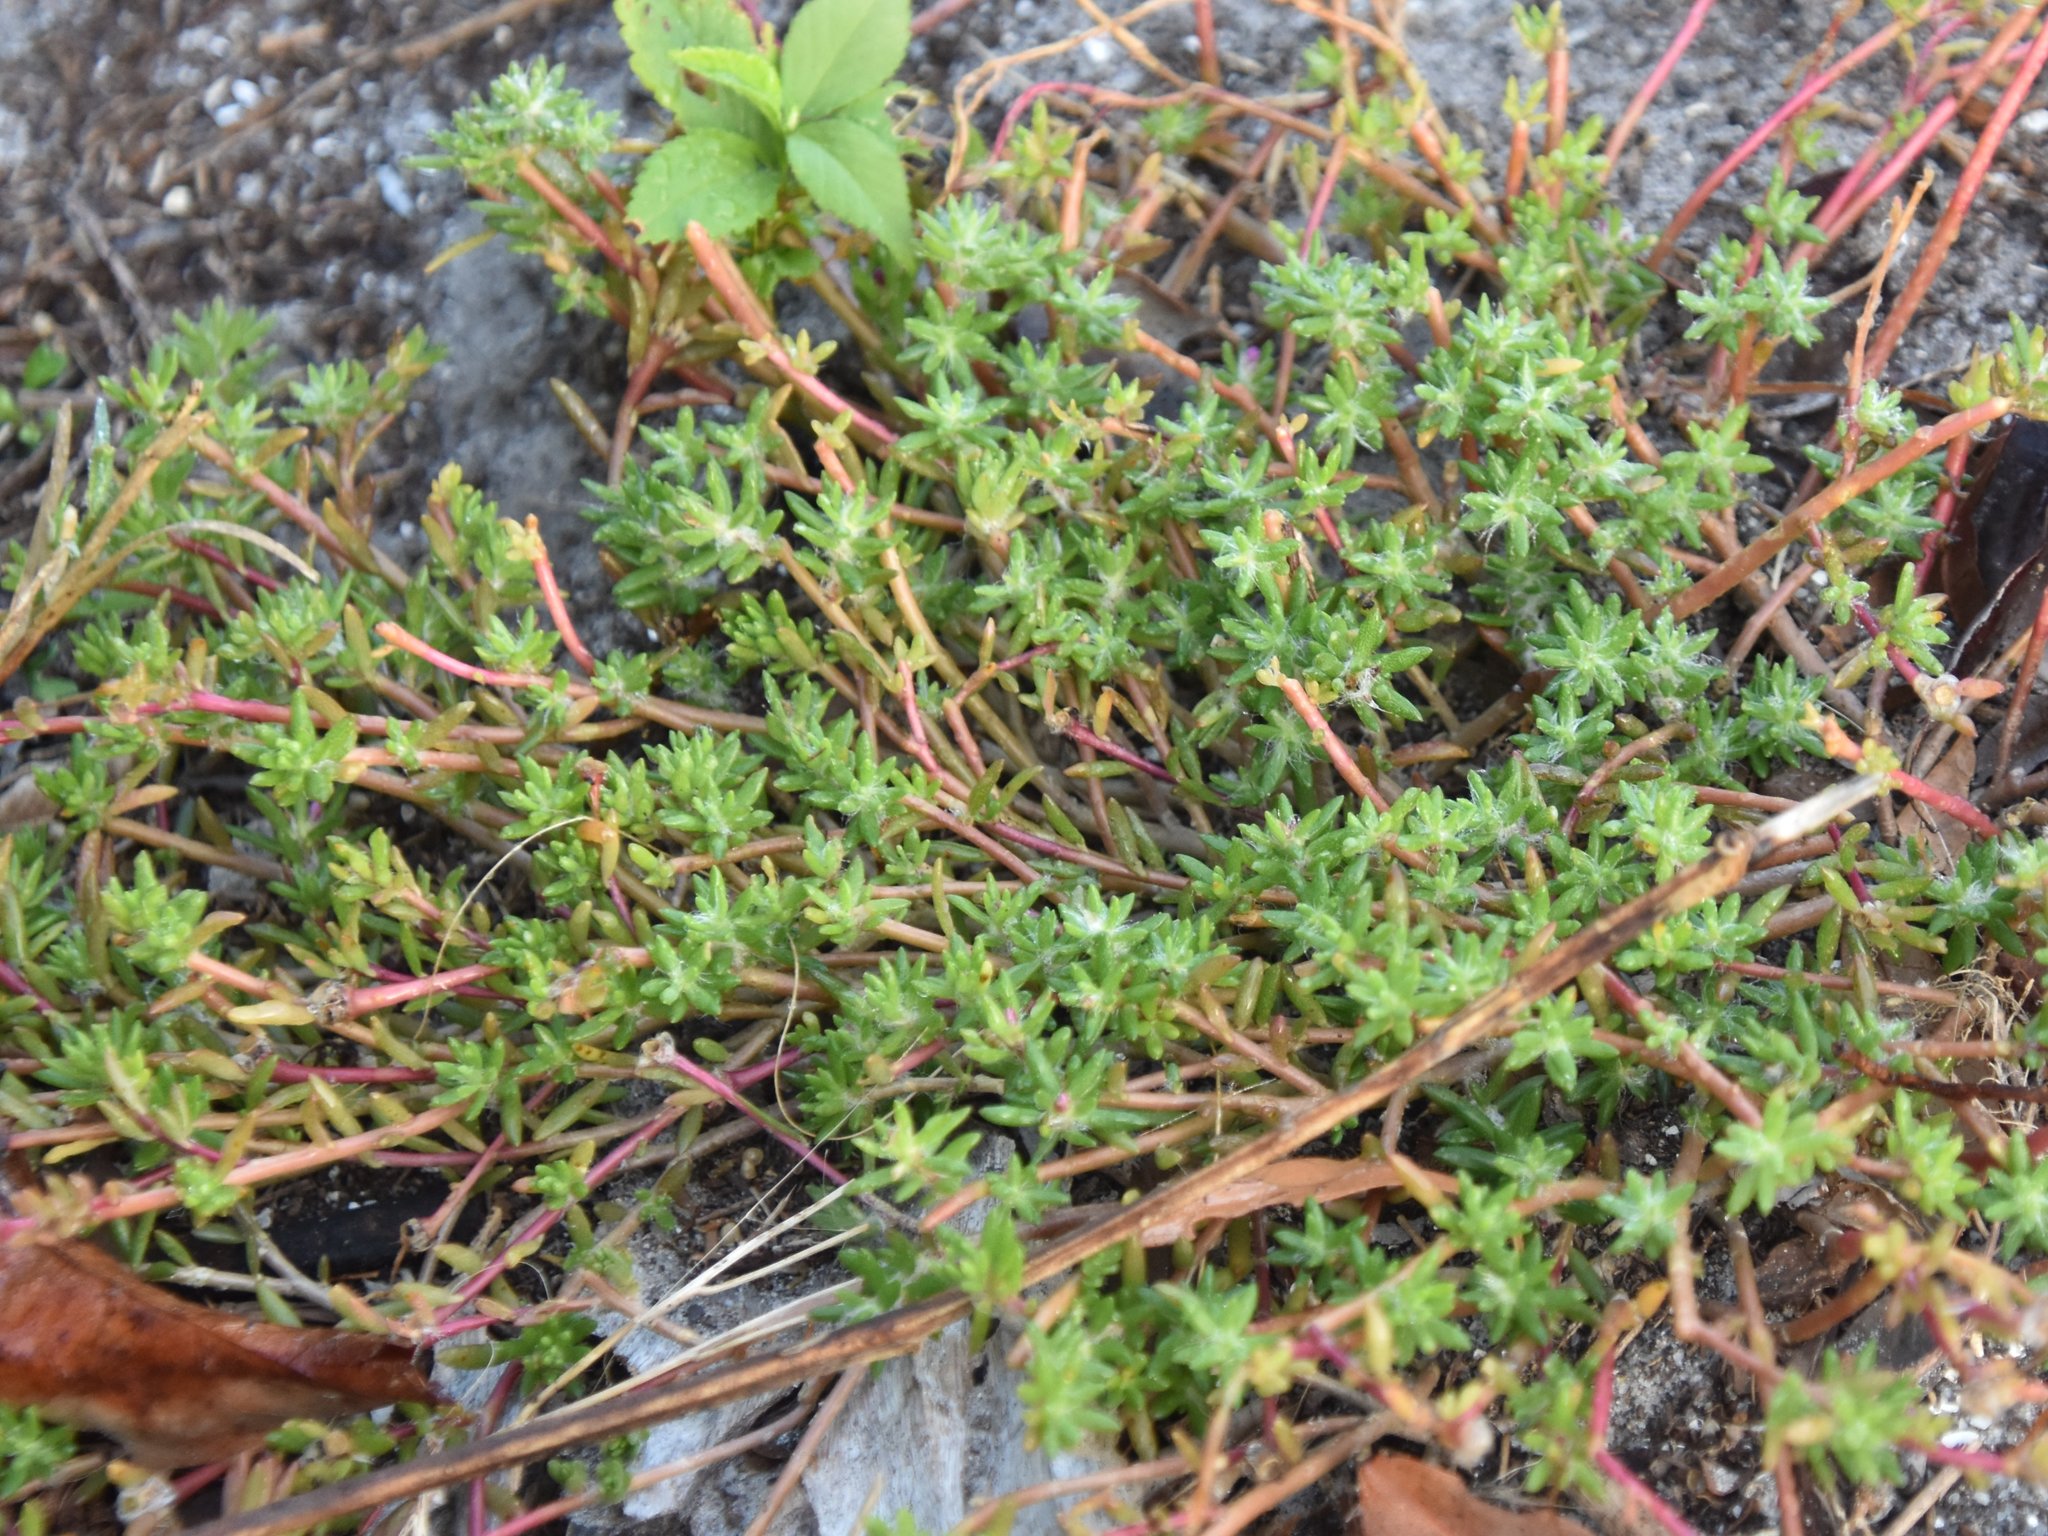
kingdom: Plantae
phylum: Tracheophyta
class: Magnoliopsida
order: Caryophyllales
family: Portulacaceae
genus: Portulaca
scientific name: Portulaca pilosa
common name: Kiss me quick
